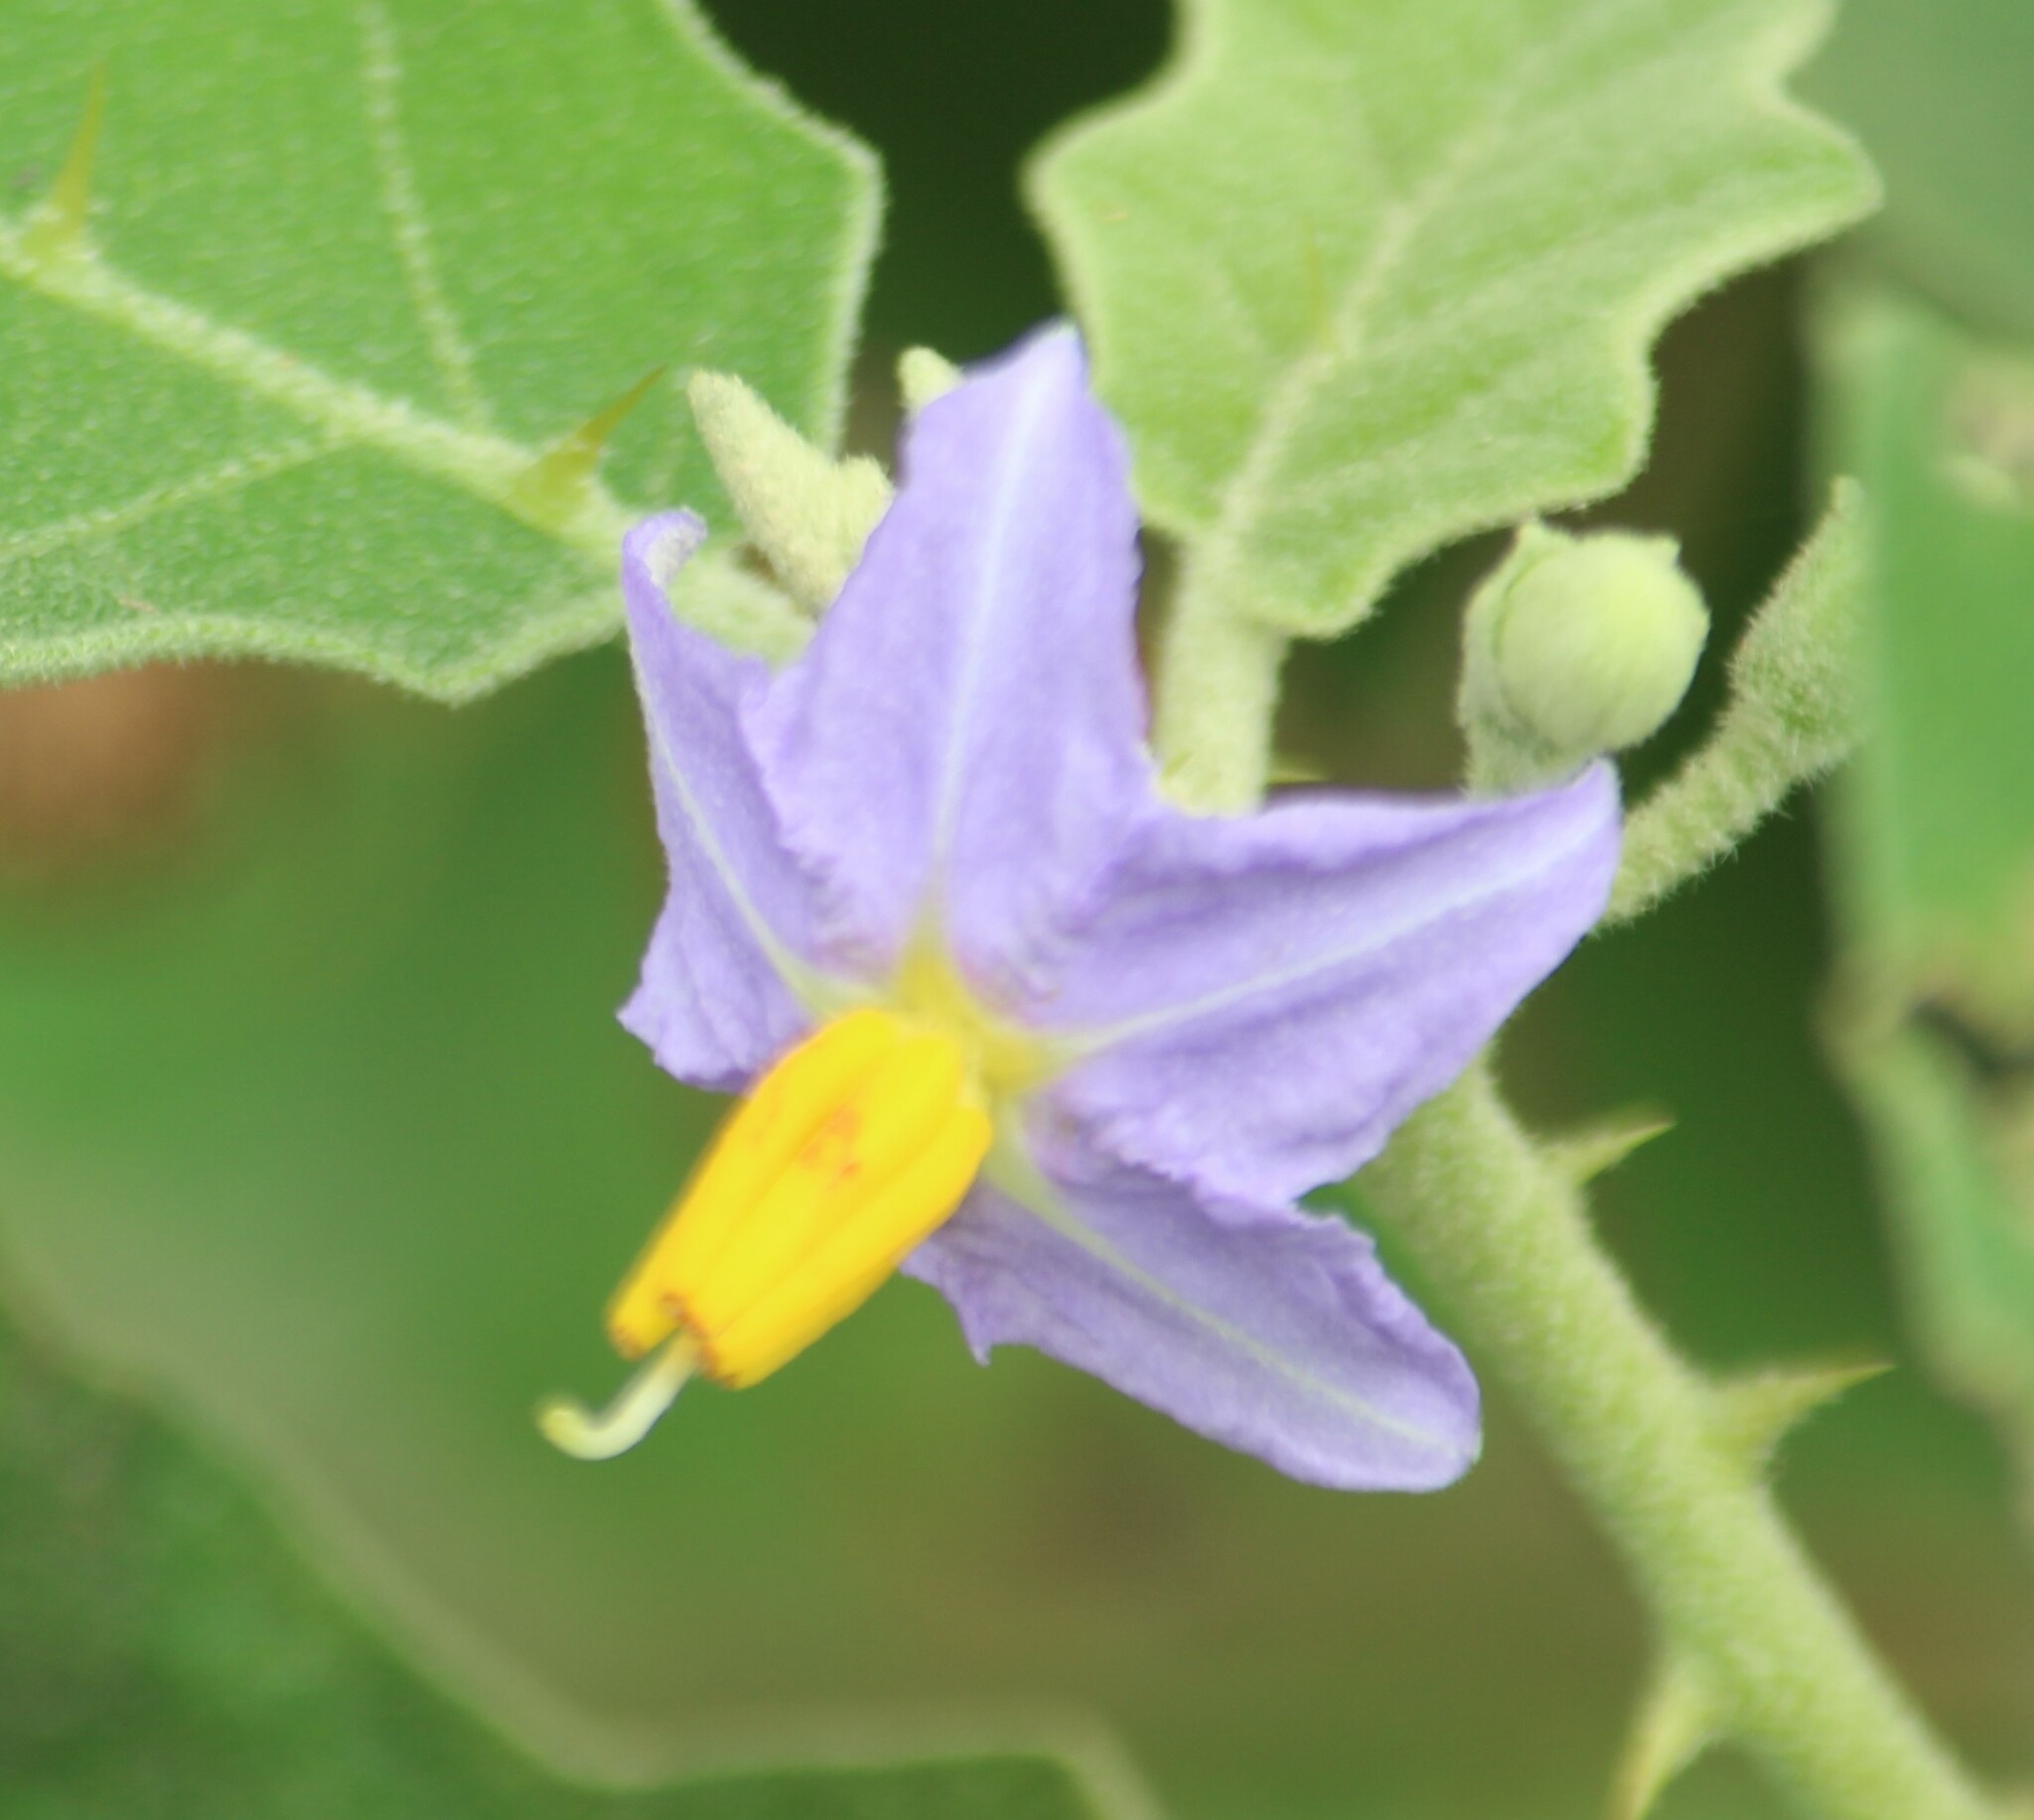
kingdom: Plantae
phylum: Tracheophyta
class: Magnoliopsida
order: Solanales
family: Solanaceae
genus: Solanum
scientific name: Solanum violaceum
